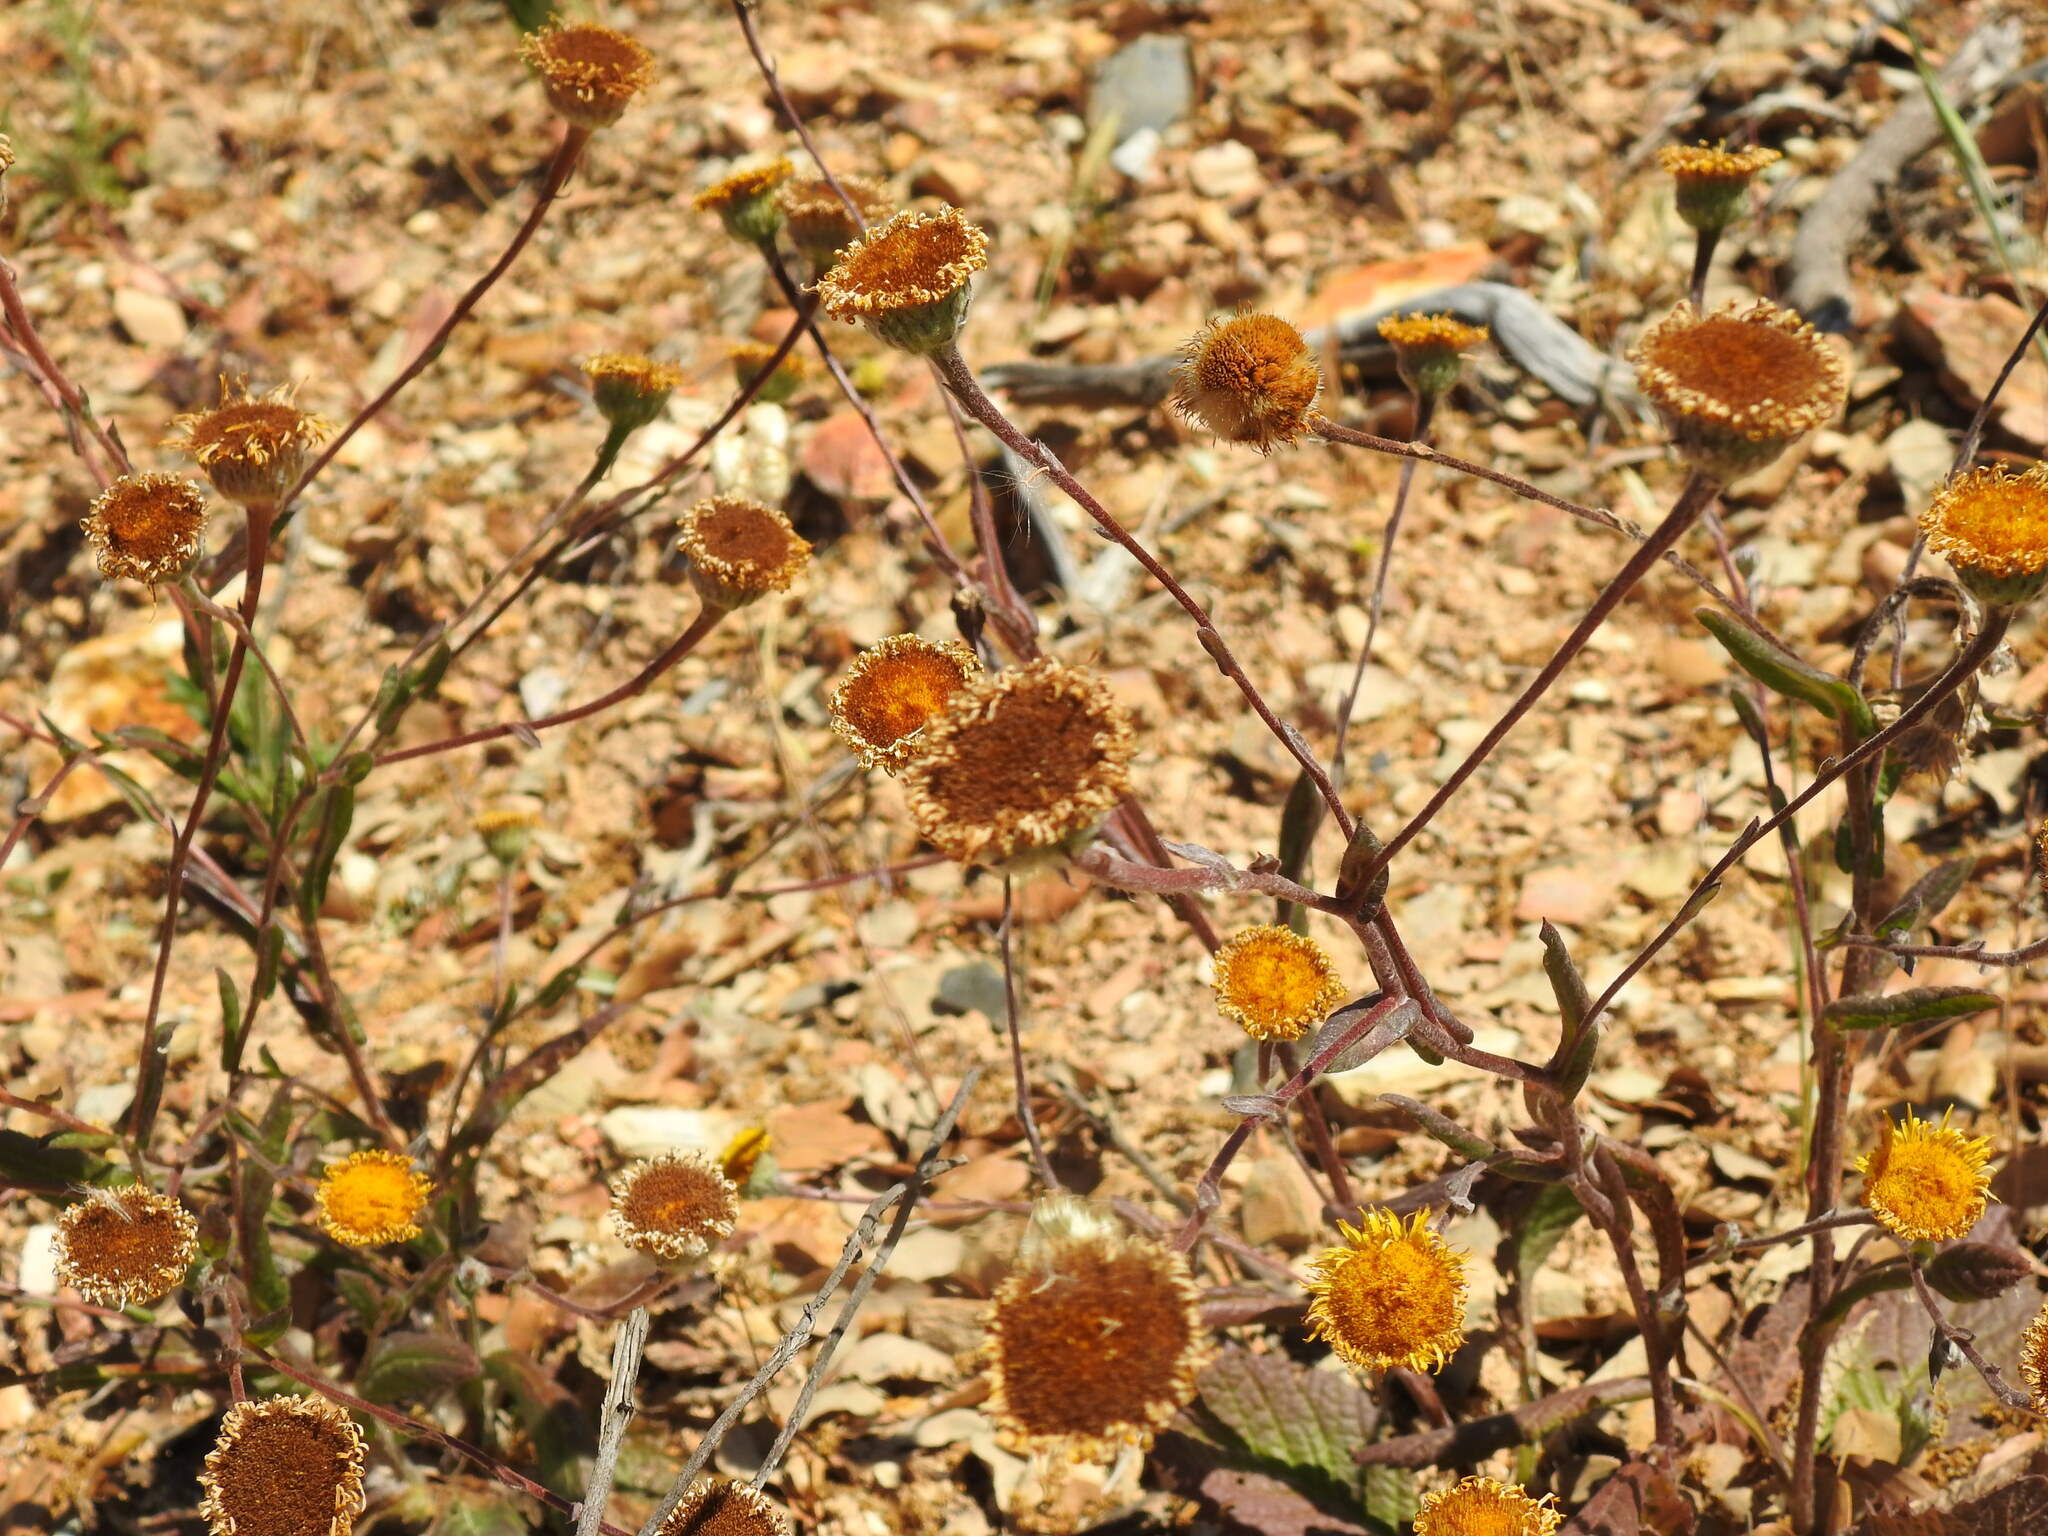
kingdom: Plantae
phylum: Tracheophyta
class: Magnoliopsida
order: Asterales
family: Asteraceae
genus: Pulicaria
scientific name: Pulicaria odora
